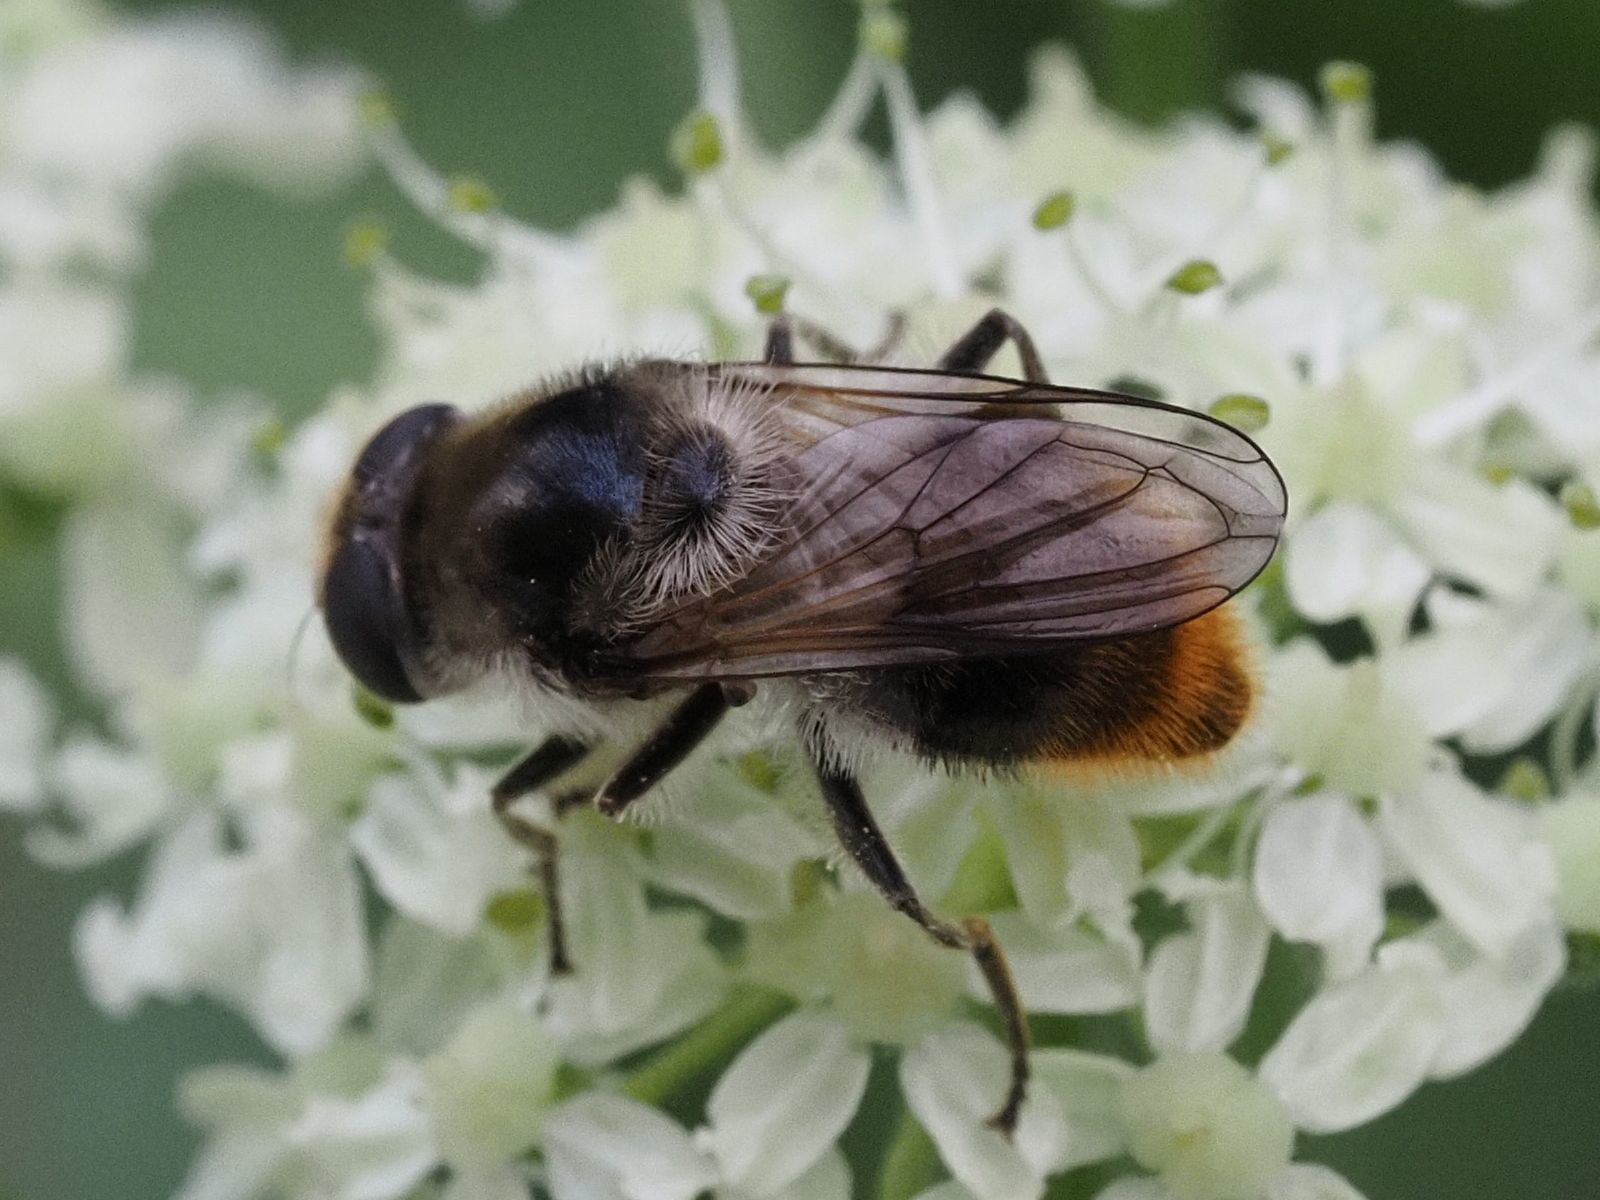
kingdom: Animalia
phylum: Arthropoda
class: Insecta
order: Diptera
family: Syrphidae
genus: Cheilosia
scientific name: Cheilosia illustrata
